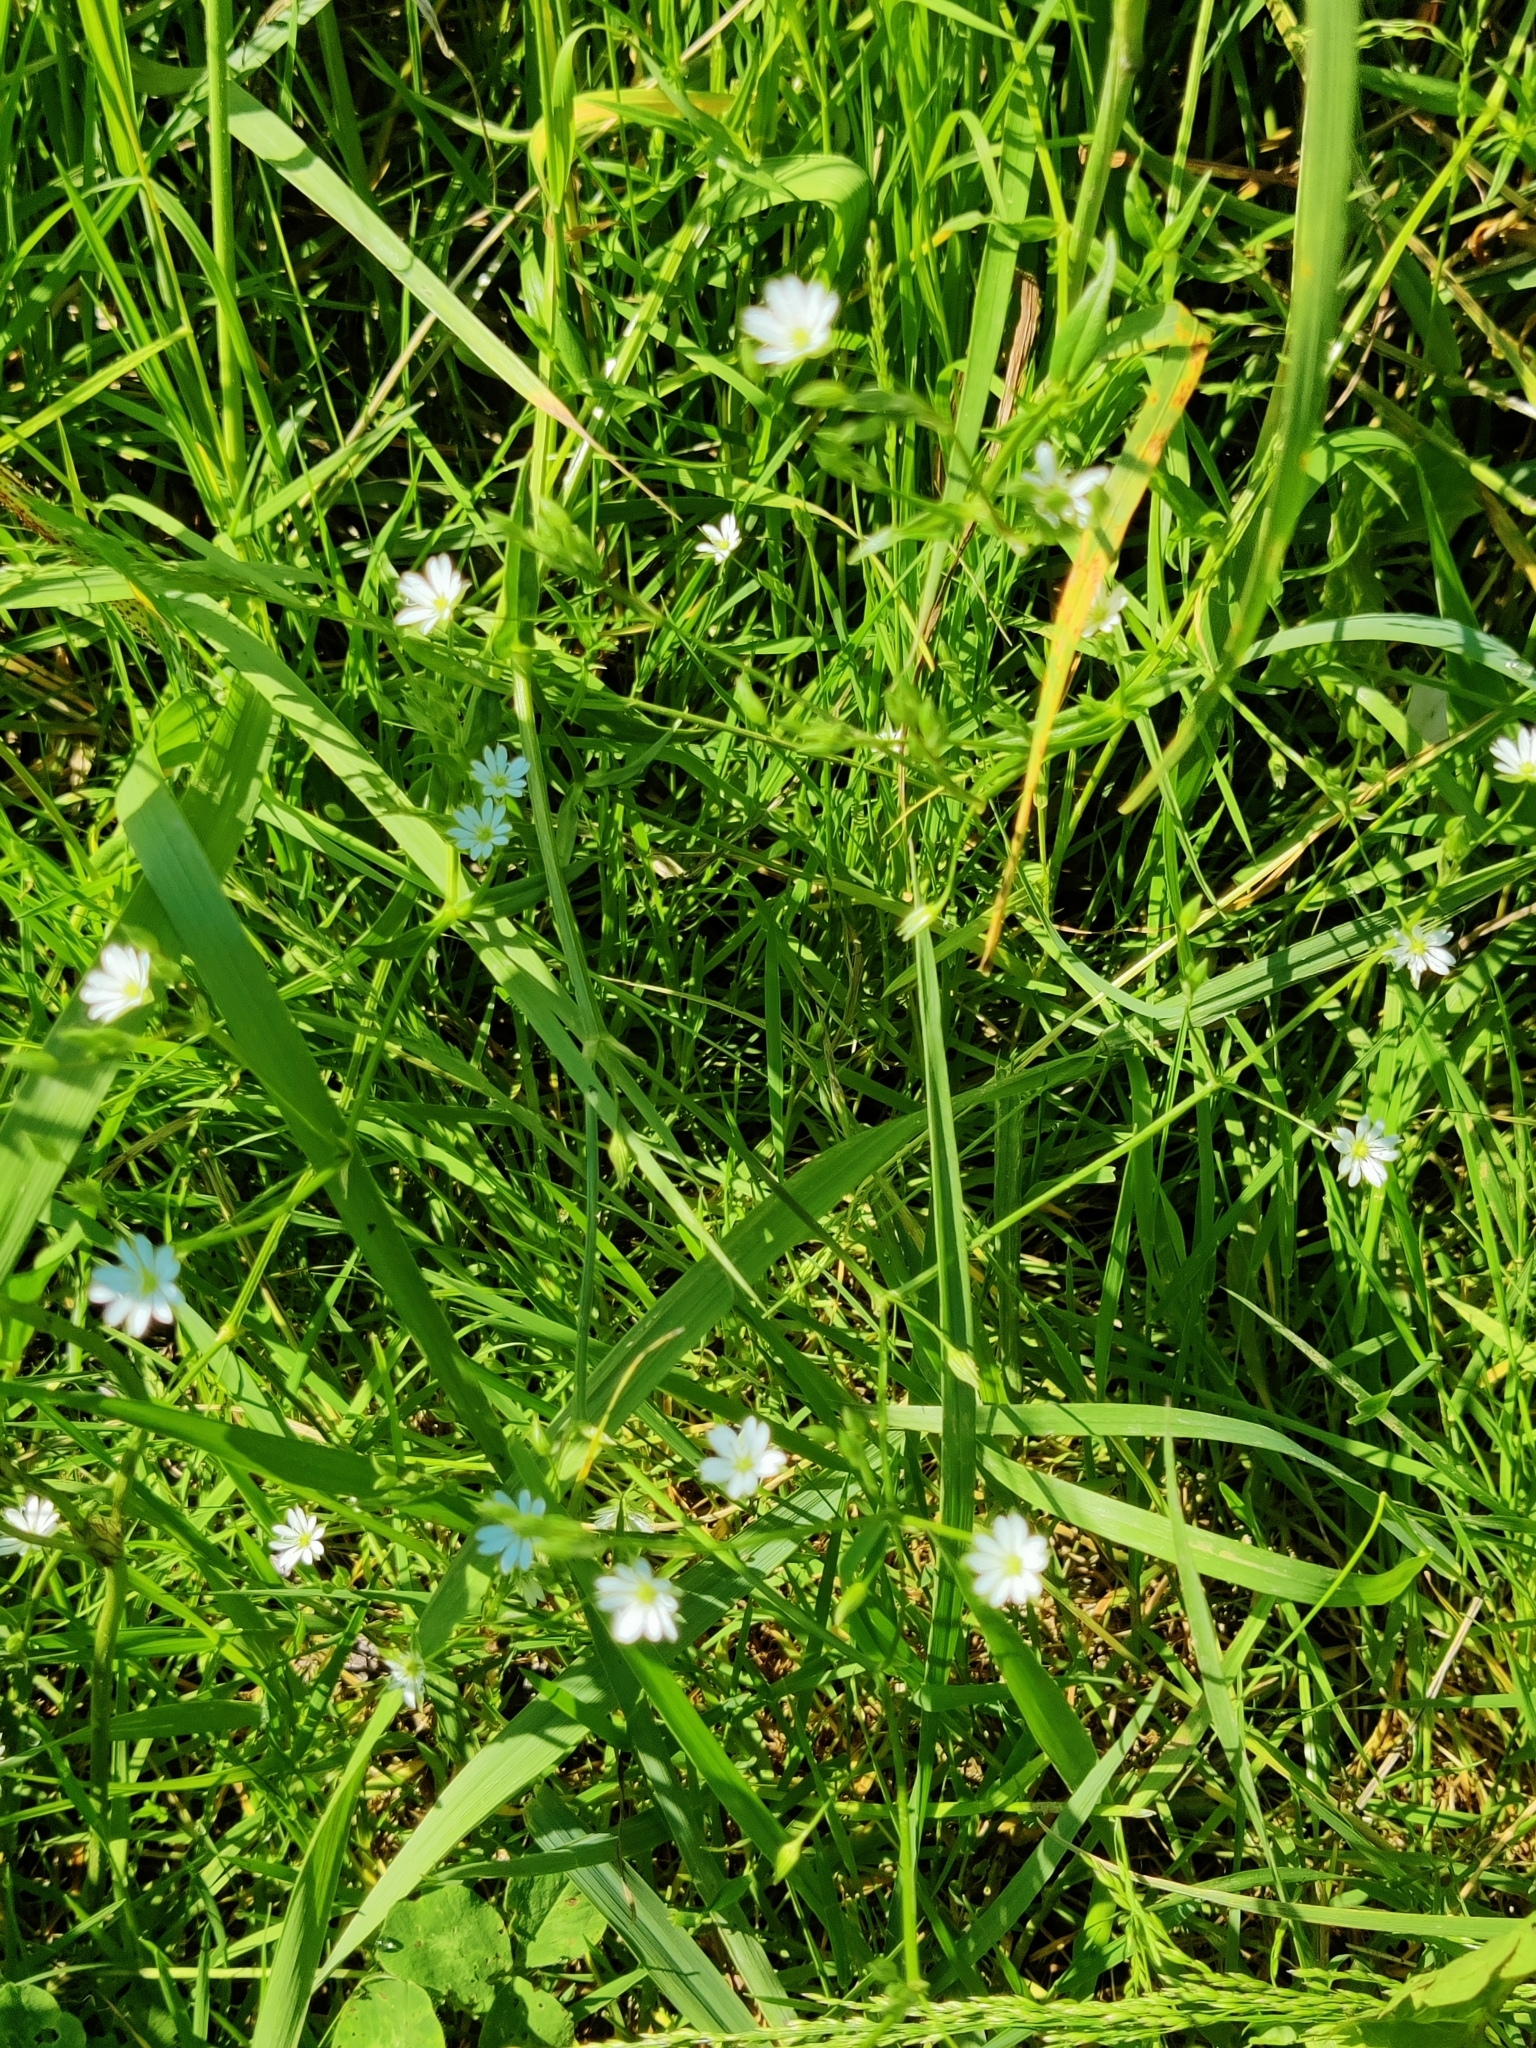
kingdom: Plantae
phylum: Tracheophyta
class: Magnoliopsida
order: Caryophyllales
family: Caryophyllaceae
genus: Stellaria
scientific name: Stellaria graminea
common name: Grass-like starwort
